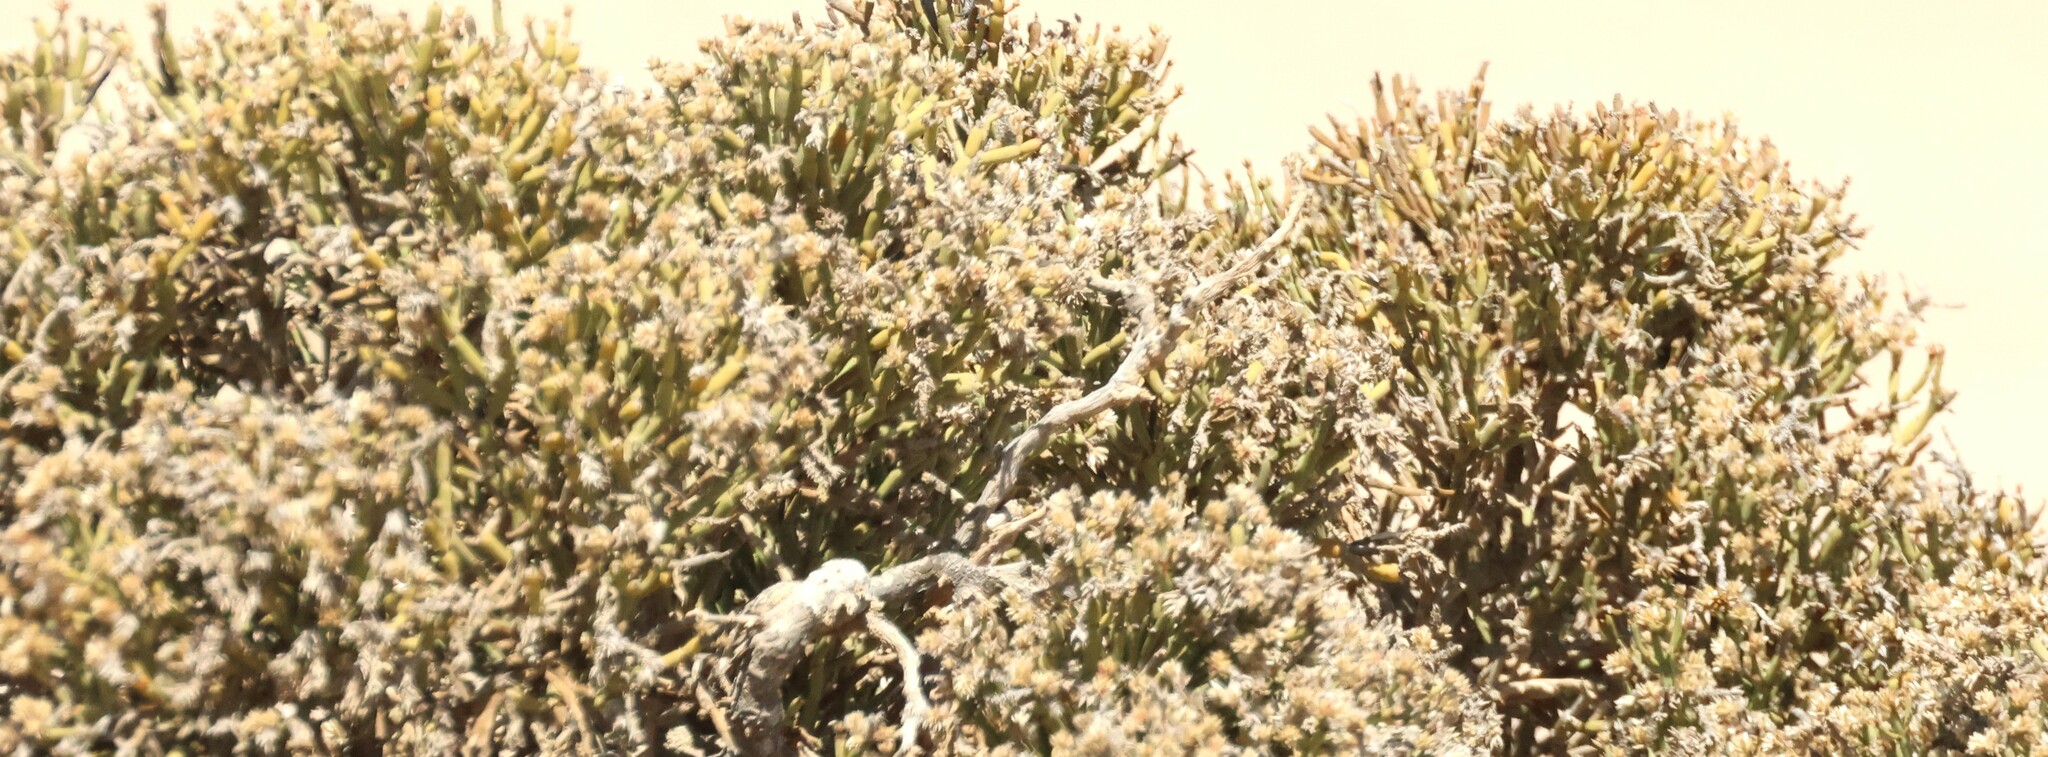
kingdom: Plantae
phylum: Tracheophyta
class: Magnoliopsida
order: Caryophyllales
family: Amaranthaceae
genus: Arthraerva
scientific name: Arthraerva leubnitziae
